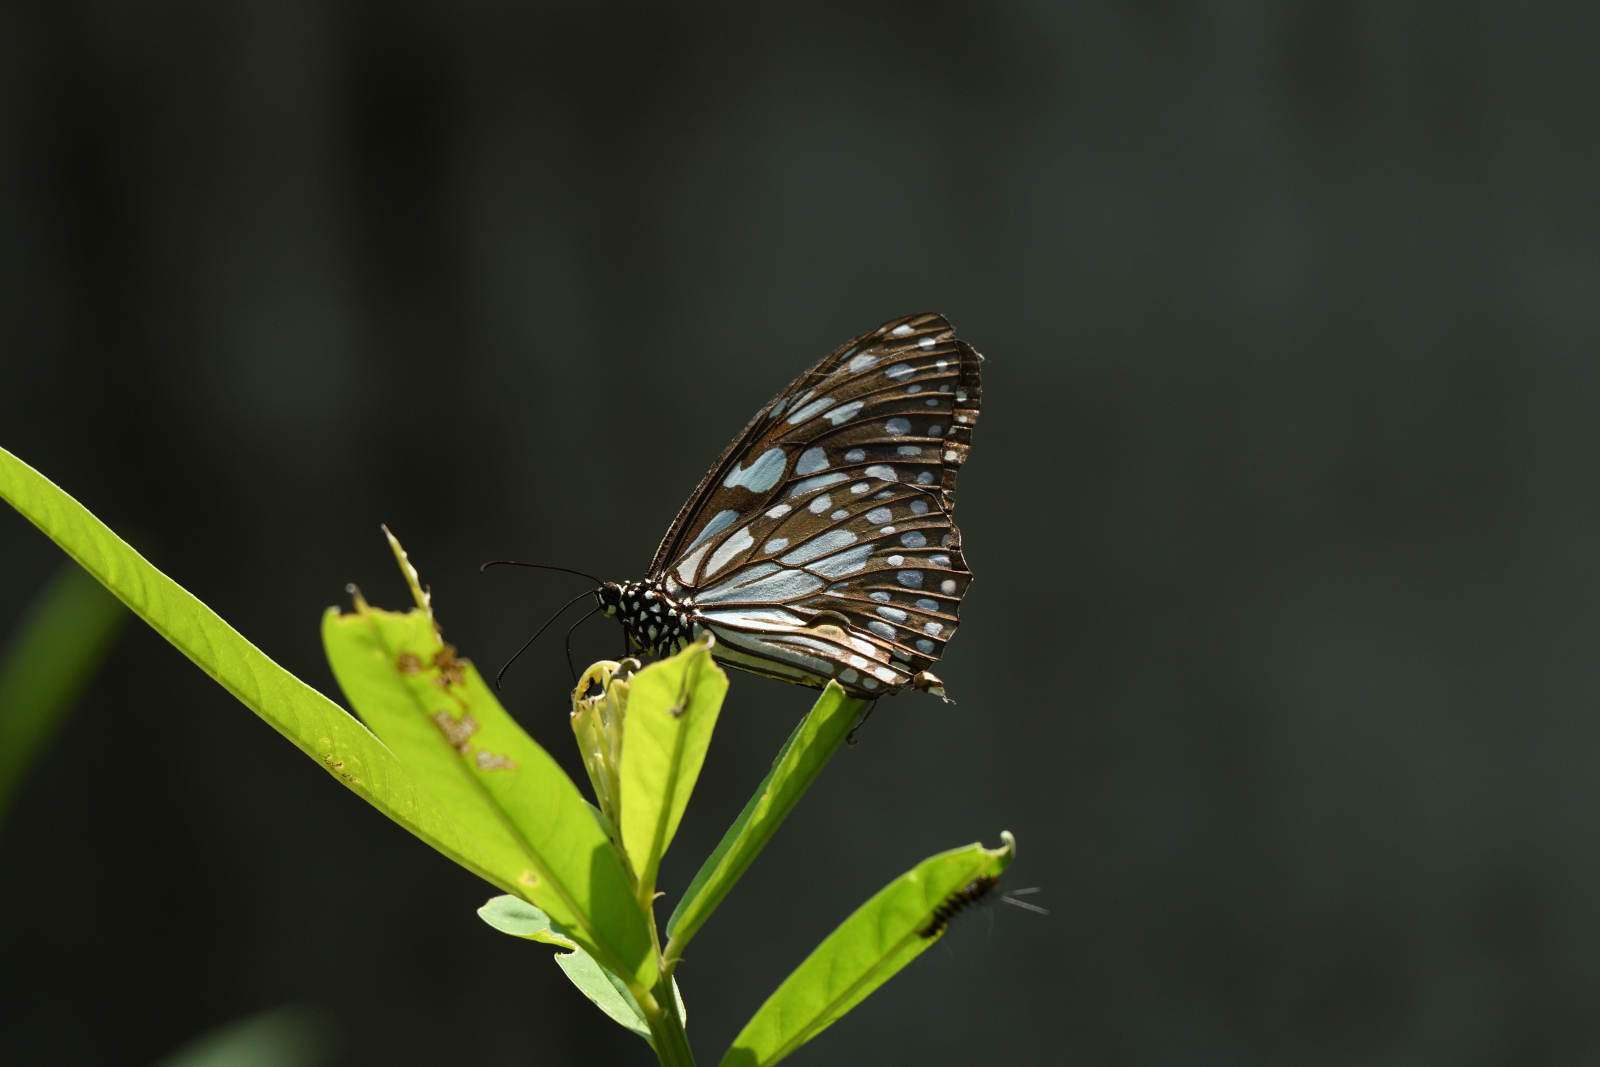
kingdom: Animalia
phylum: Arthropoda
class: Insecta
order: Lepidoptera
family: Nymphalidae
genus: Tirumala
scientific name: Tirumala limniace
